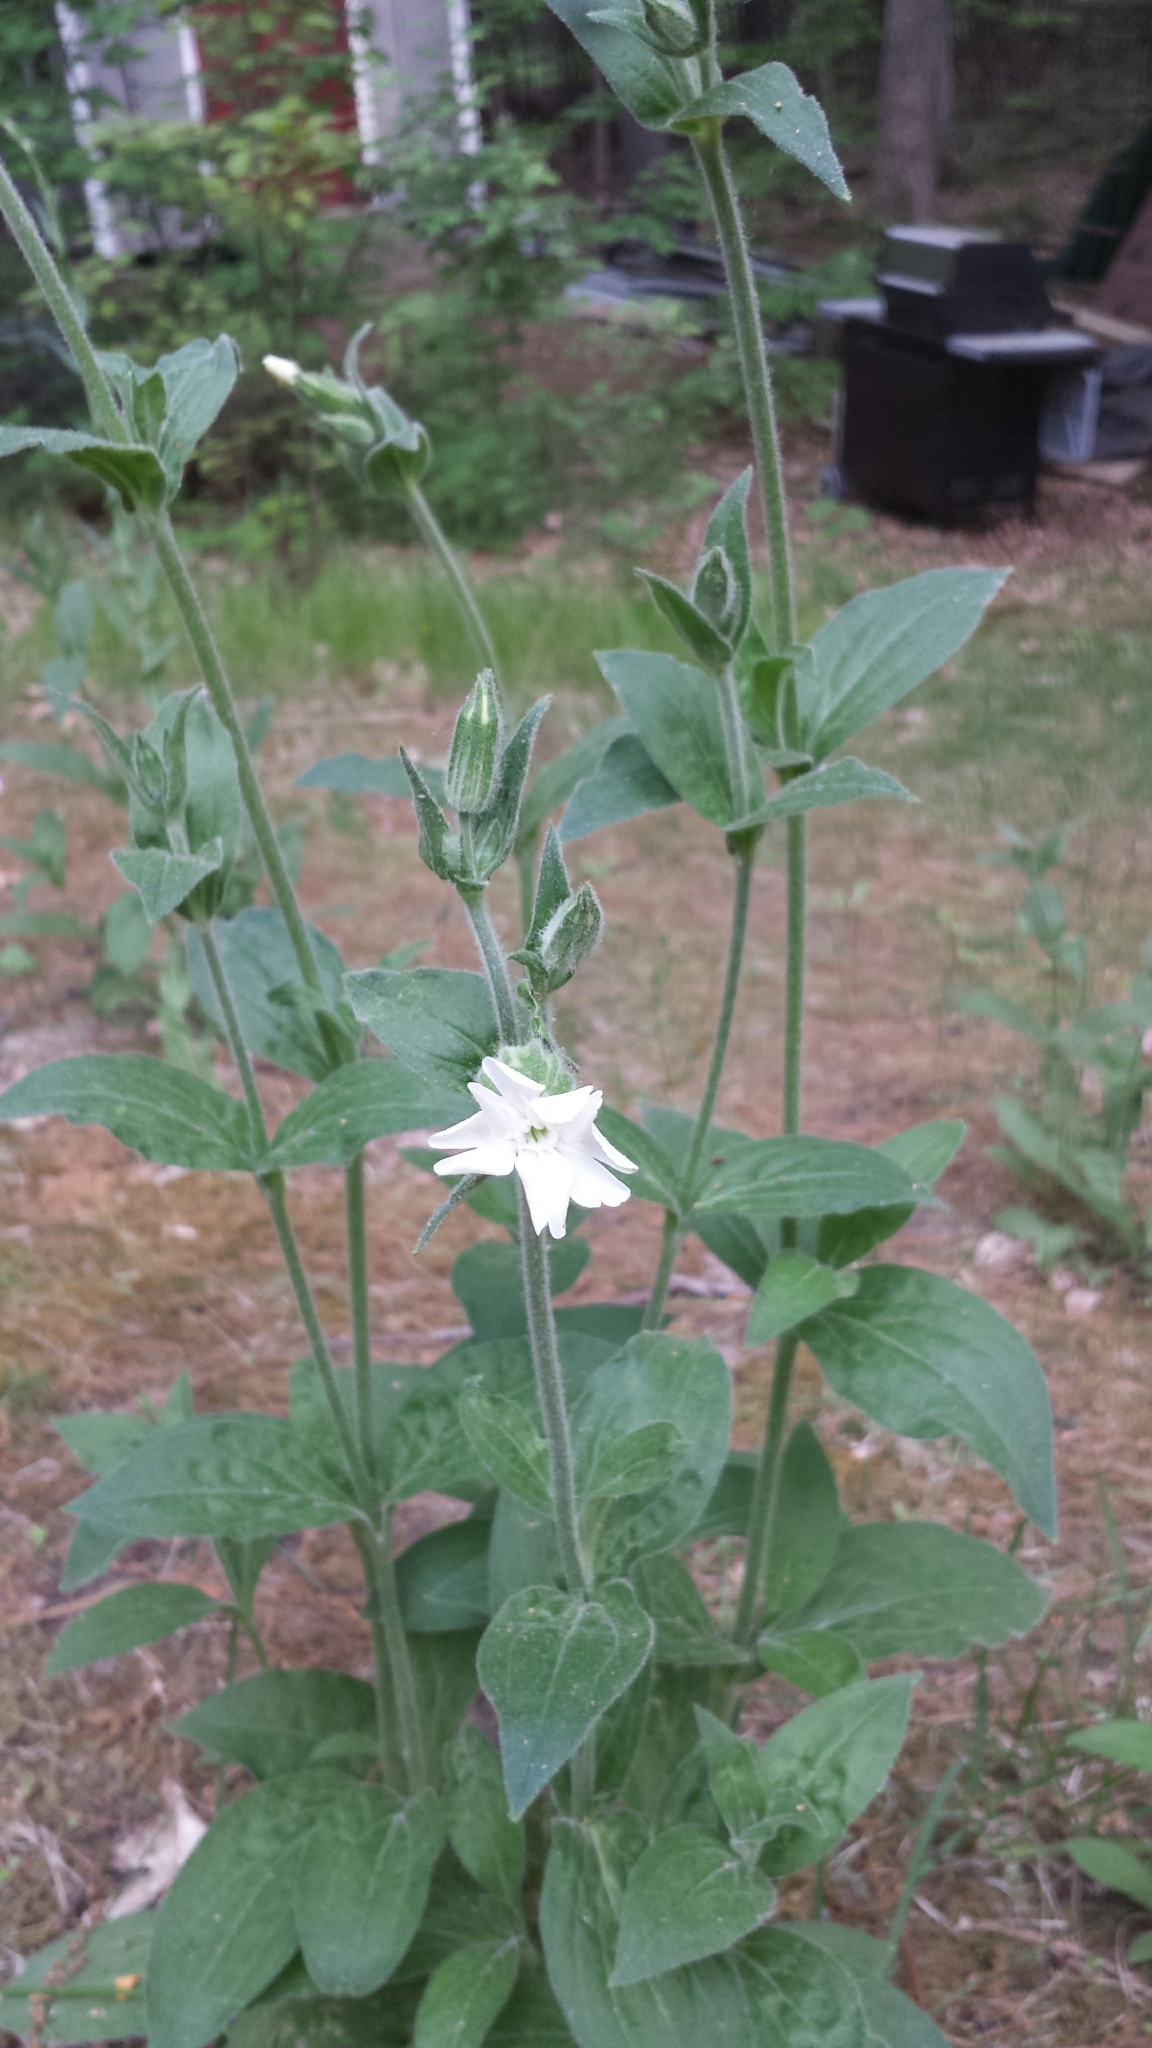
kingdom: Plantae
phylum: Tracheophyta
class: Magnoliopsida
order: Caryophyllales
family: Caryophyllaceae
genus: Silene
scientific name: Silene latifolia
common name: White campion
